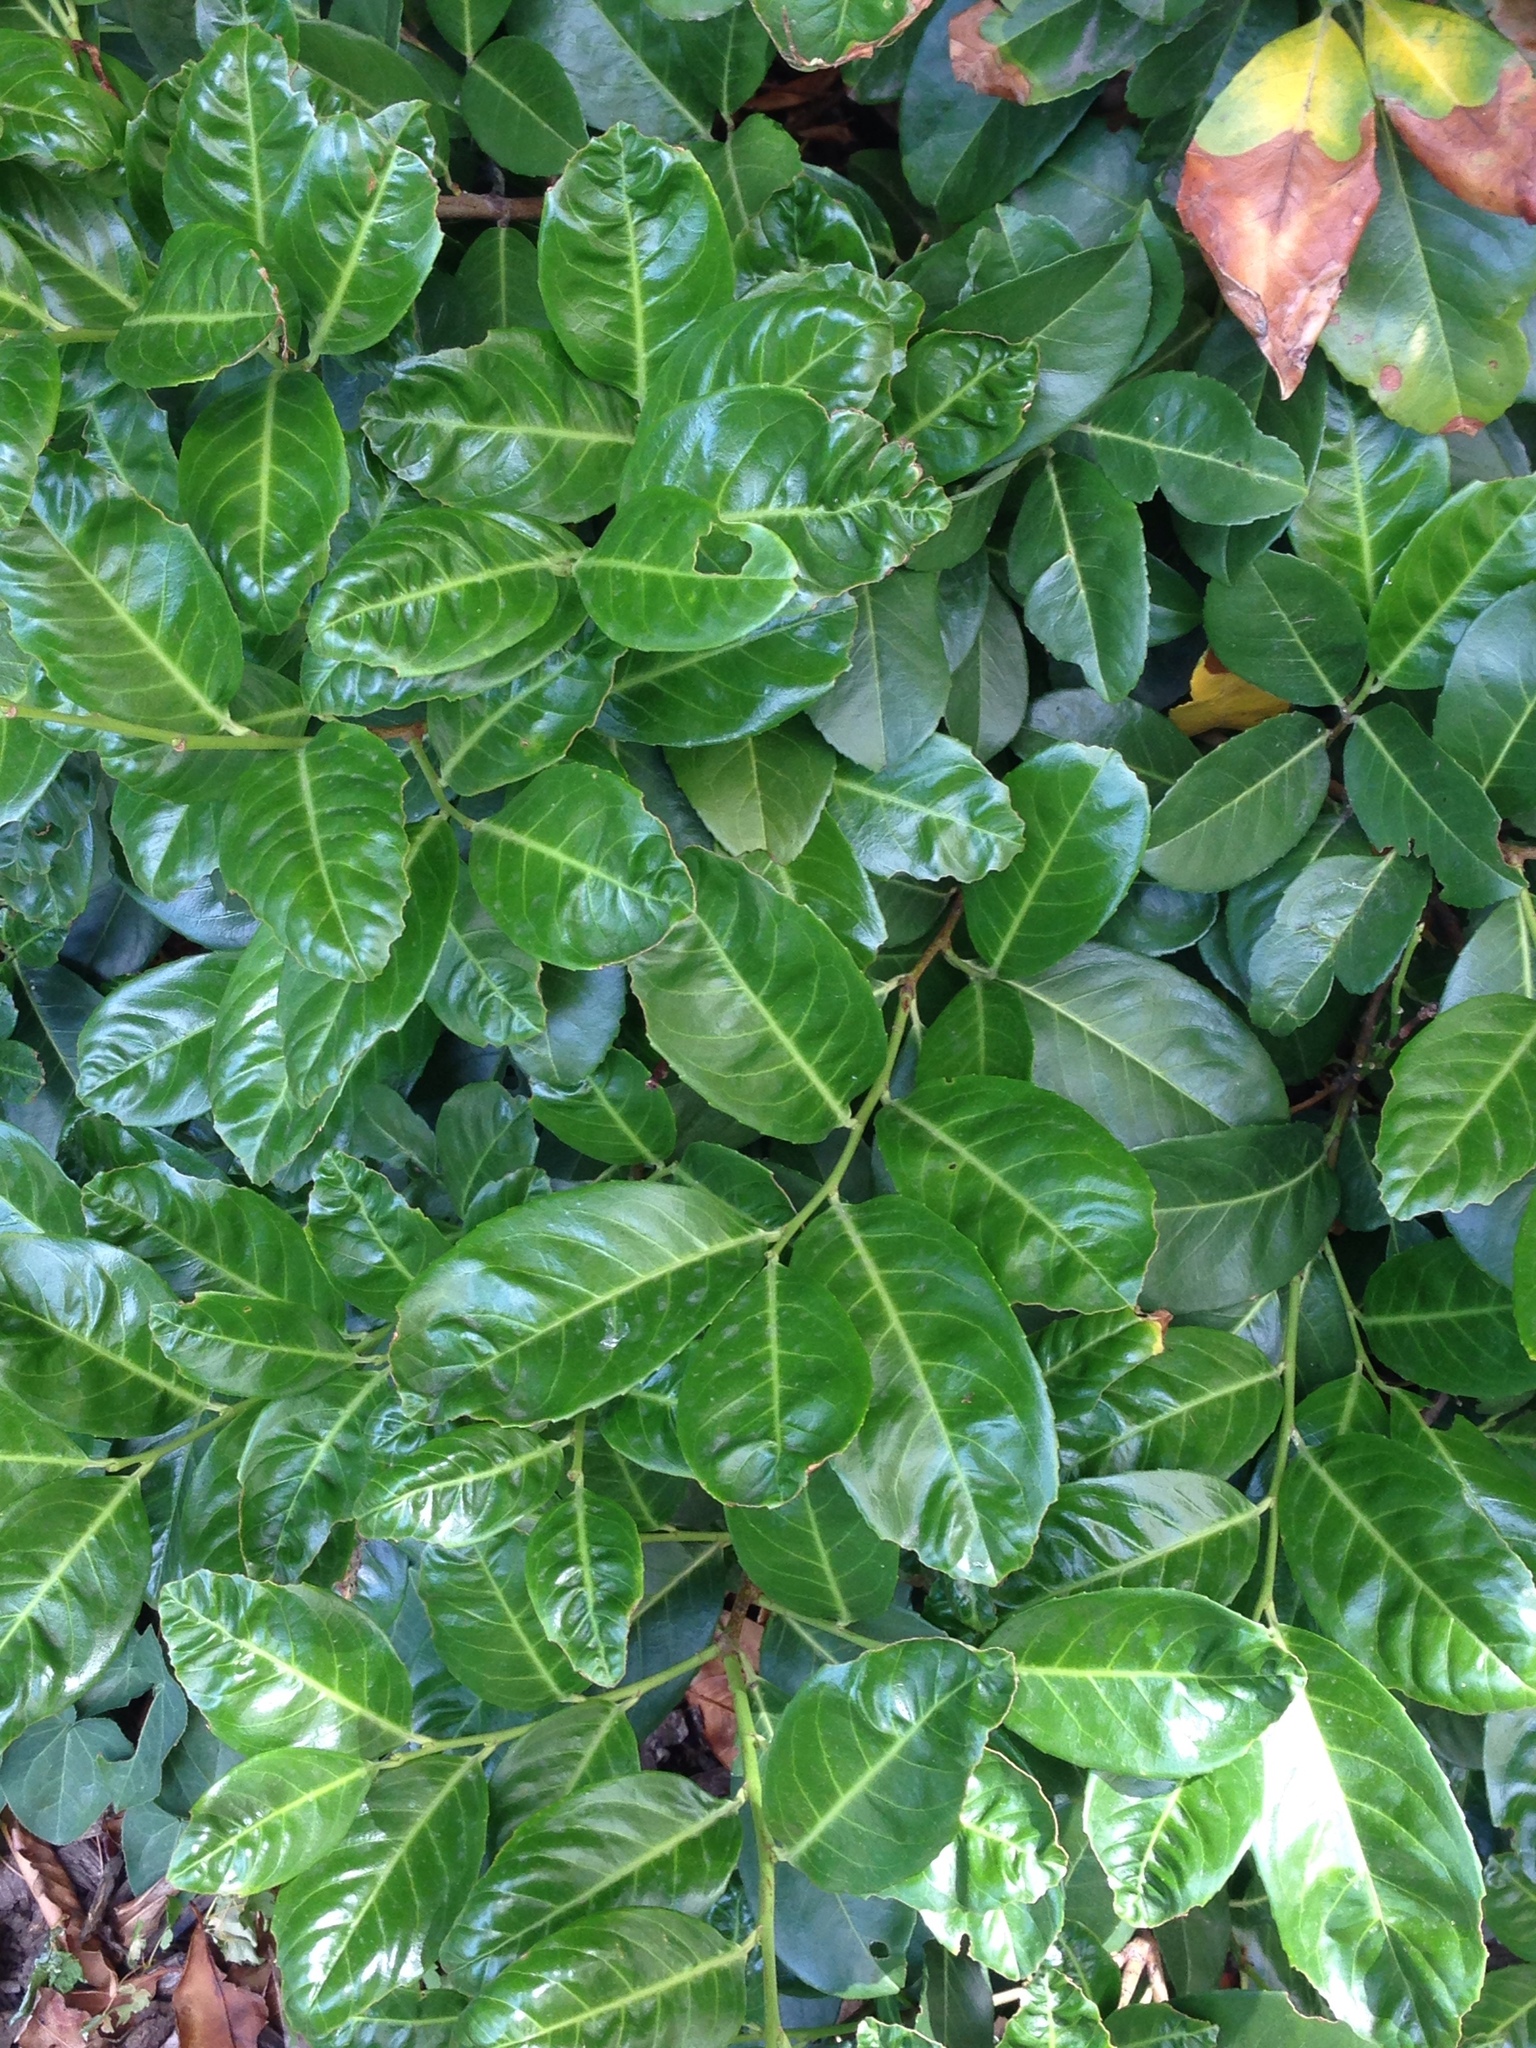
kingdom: Plantae
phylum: Tracheophyta
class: Magnoliopsida
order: Rosales
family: Rosaceae
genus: Prunus
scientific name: Prunus laurocerasus
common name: Cherry laurel
